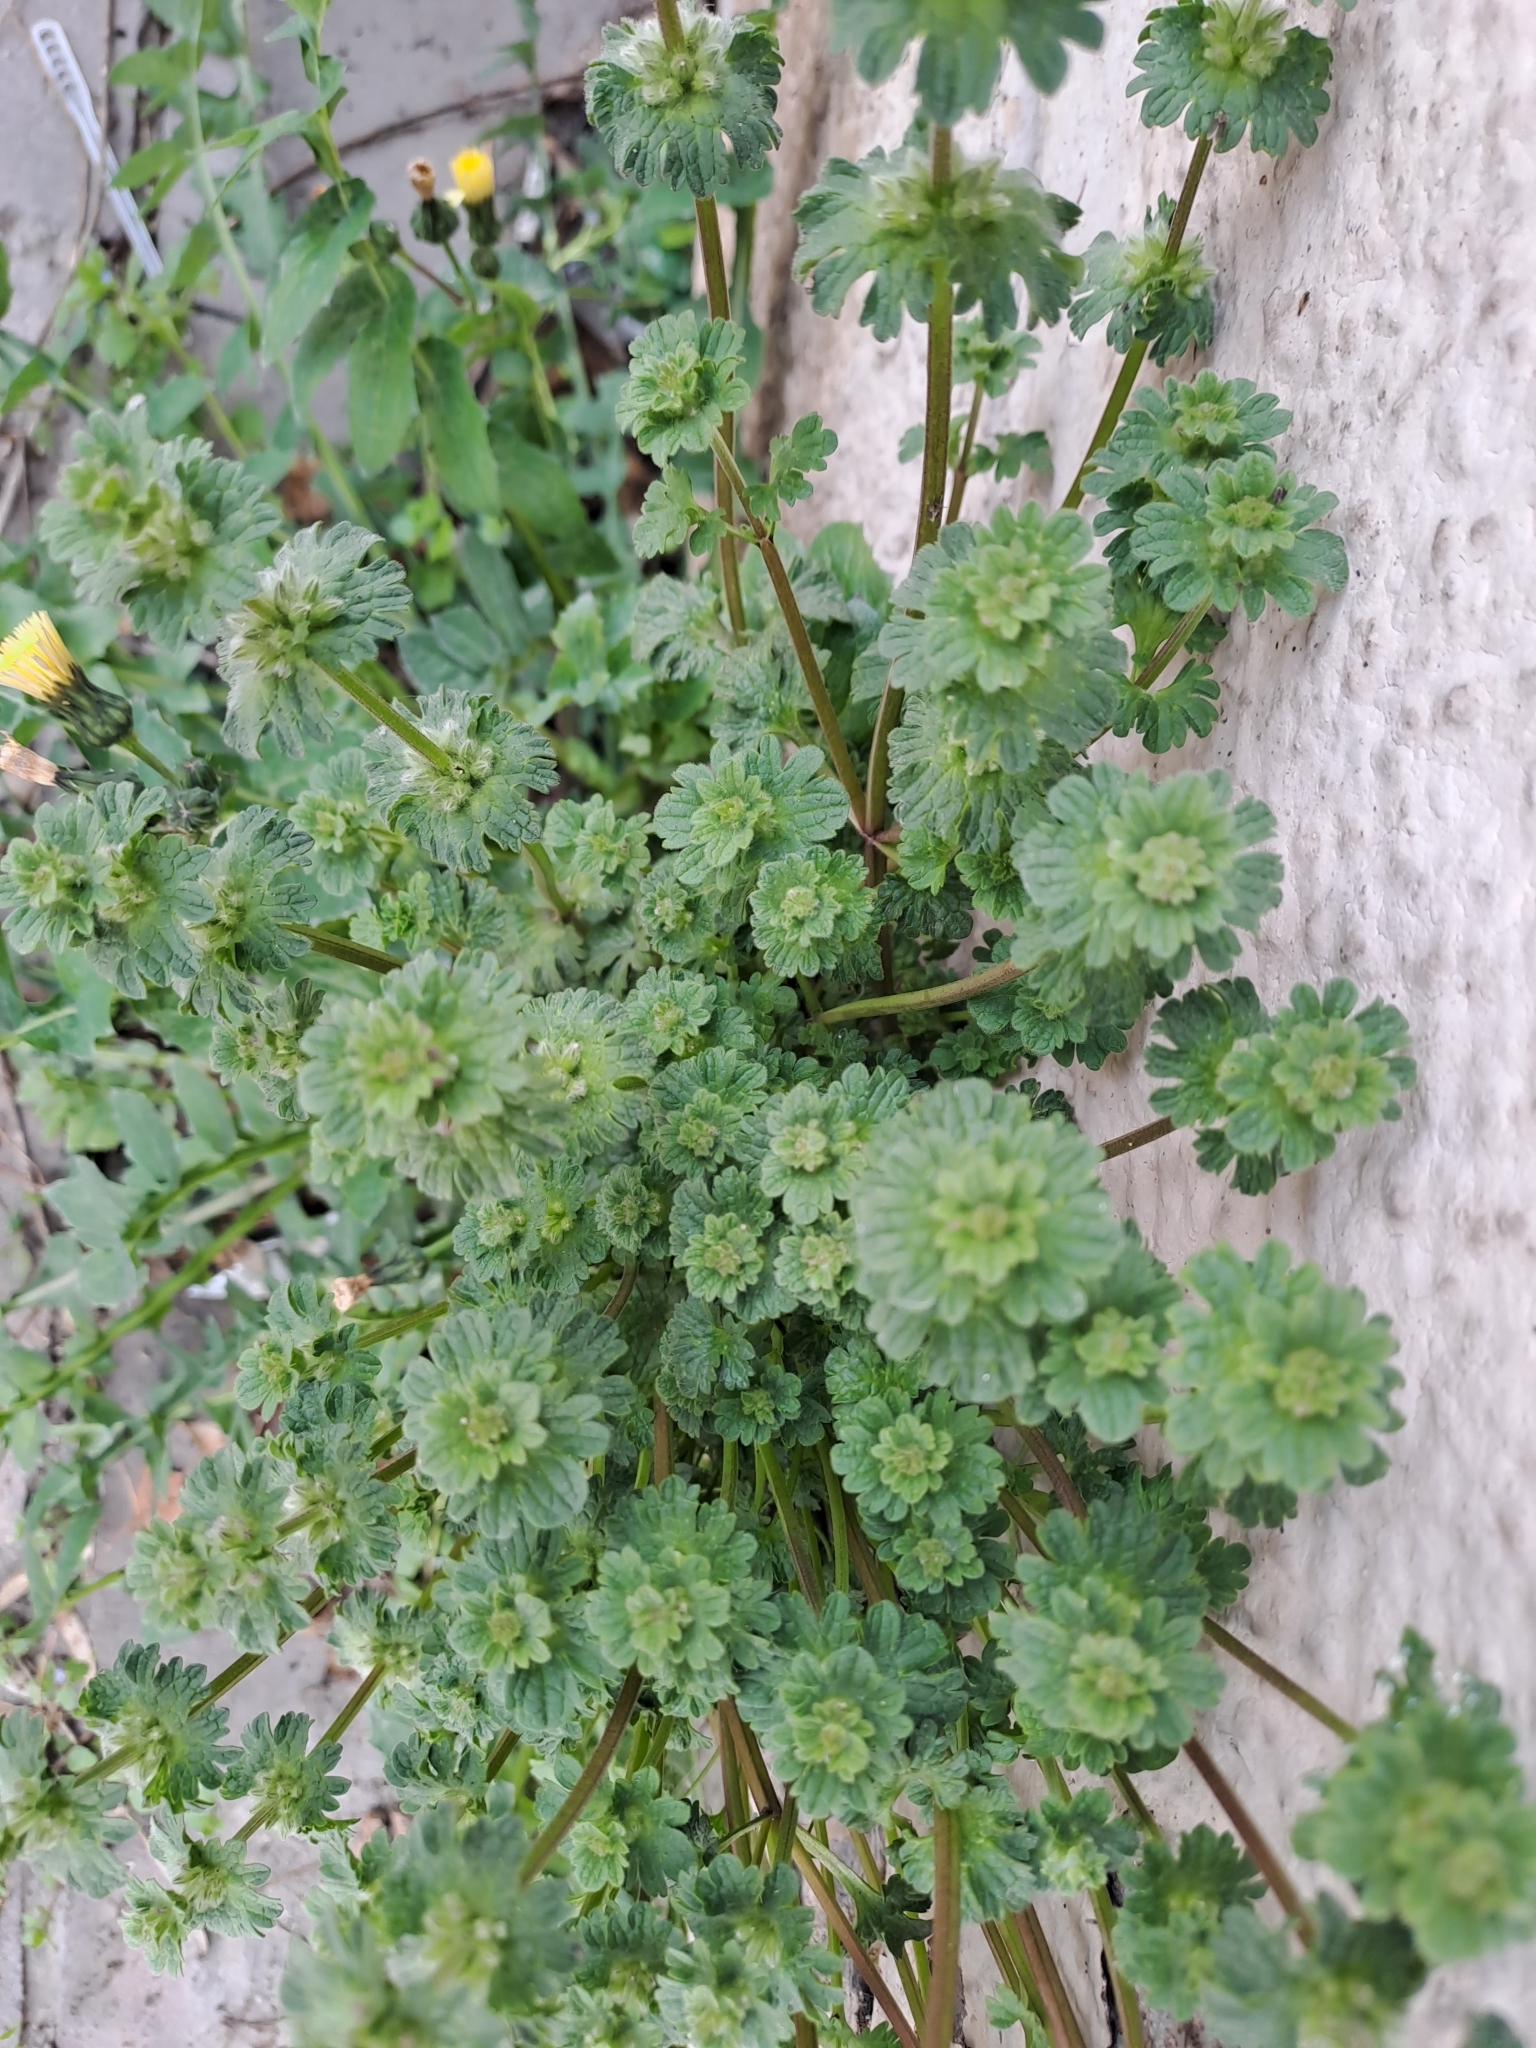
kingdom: Plantae
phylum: Tracheophyta
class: Magnoliopsida
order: Lamiales
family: Lamiaceae
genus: Lamium
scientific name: Lamium amplexicaule
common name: Henbit dead-nettle
